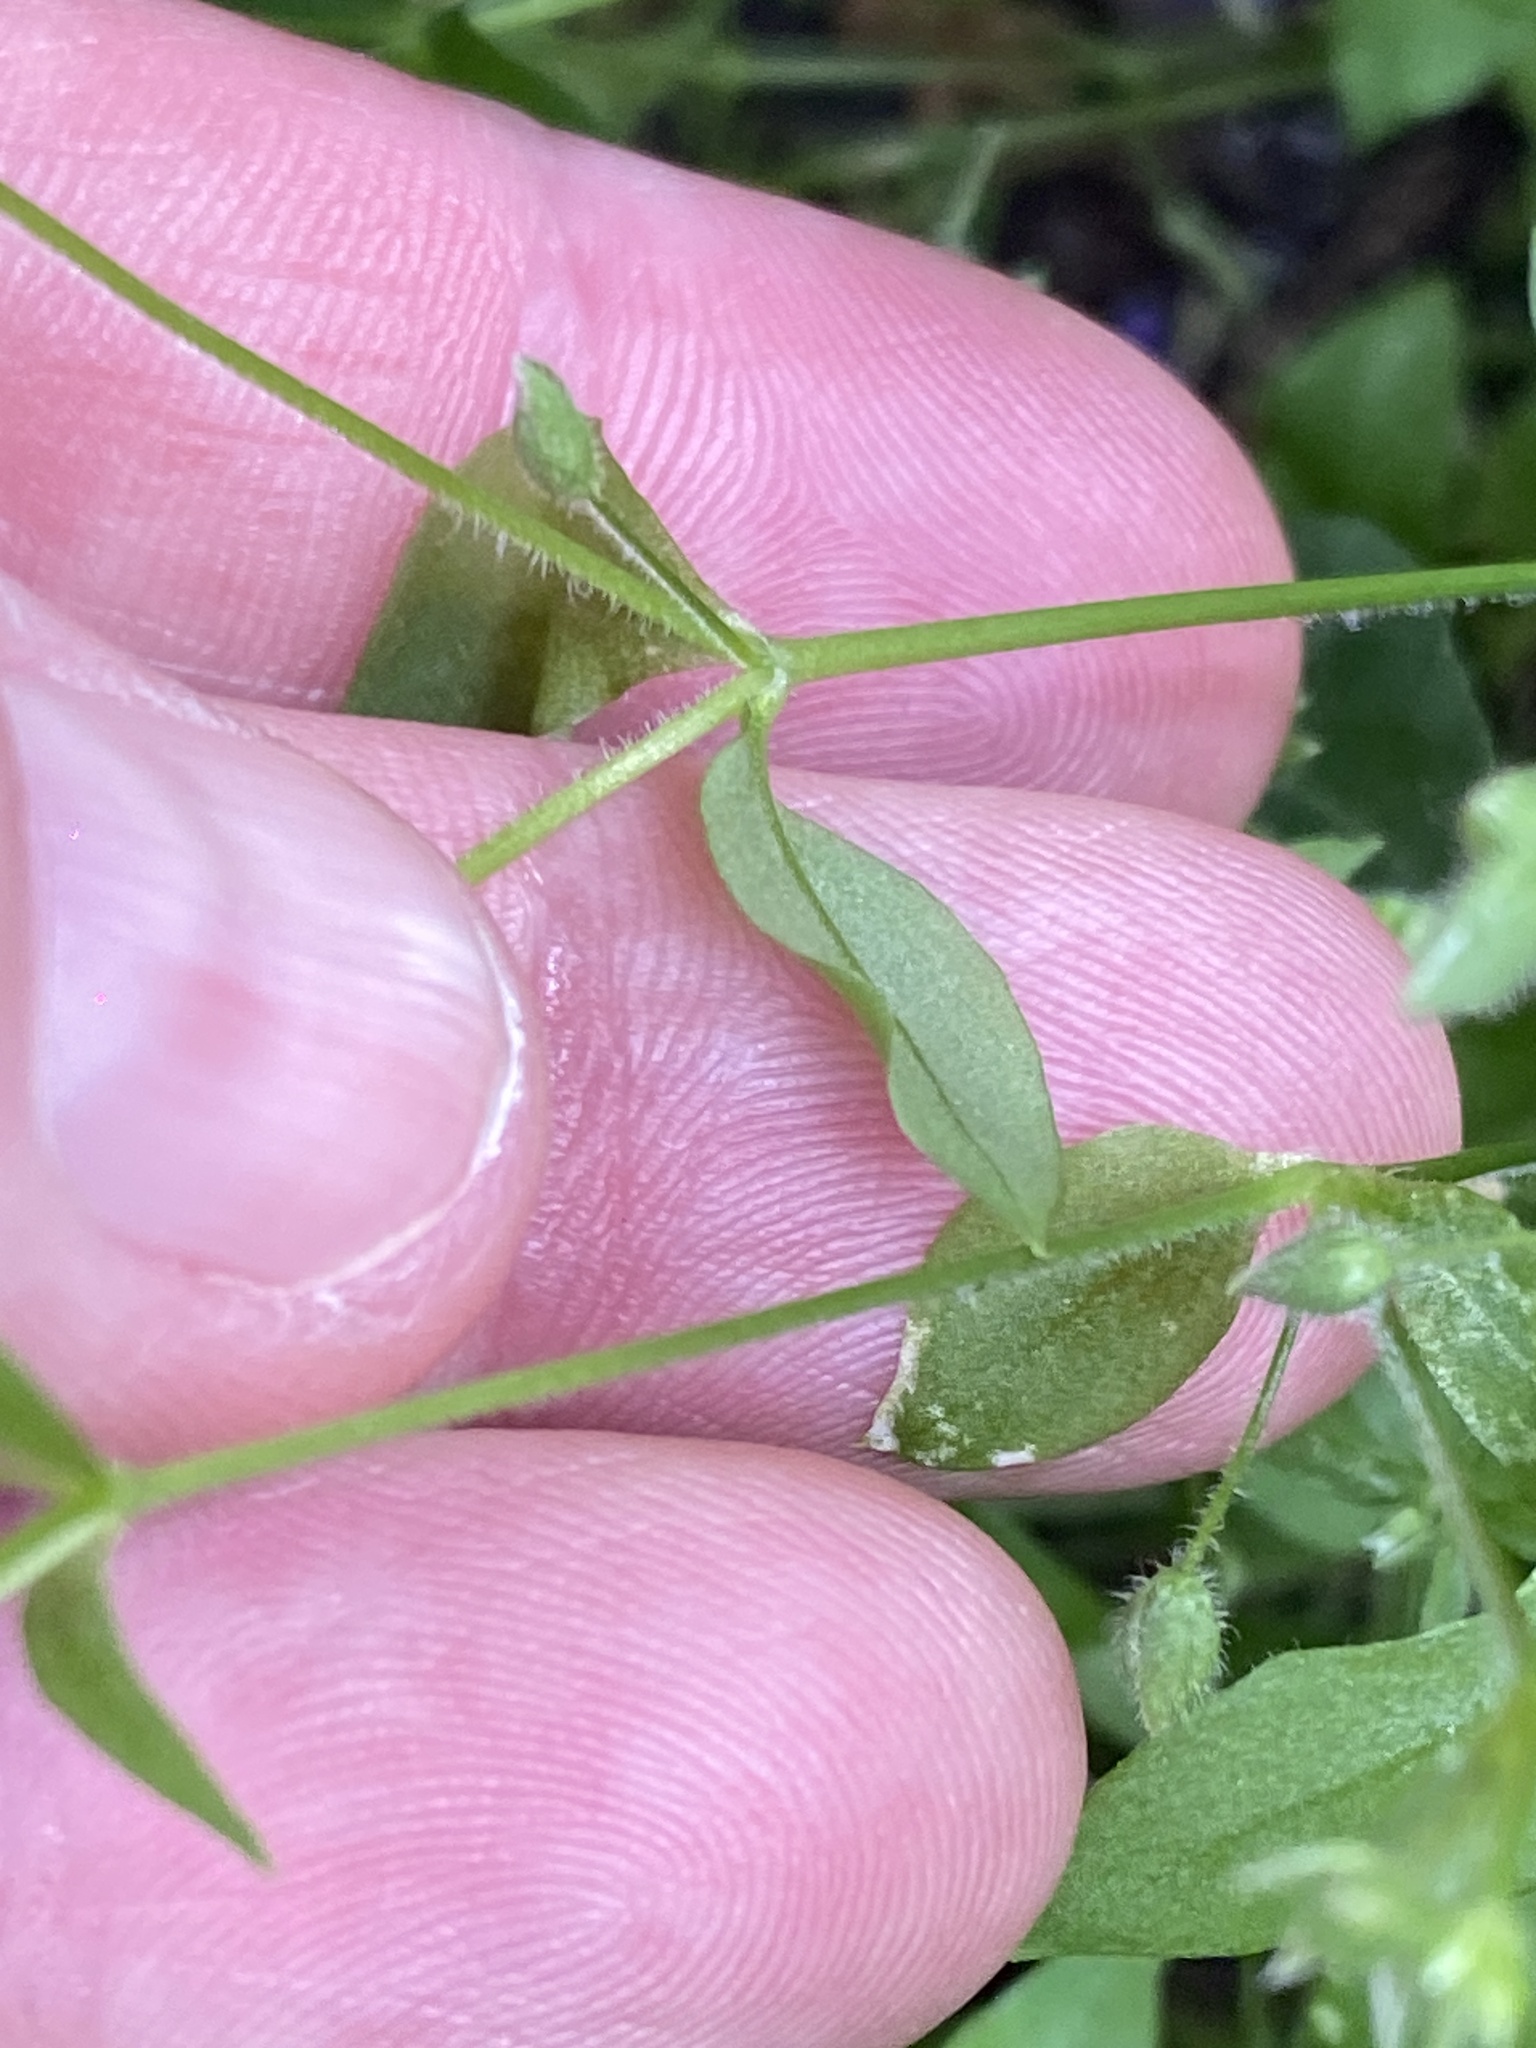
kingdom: Plantae
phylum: Tracheophyta
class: Magnoliopsida
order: Caryophyllales
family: Caryophyllaceae
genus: Stellaria
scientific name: Stellaria media
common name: Common chickweed
